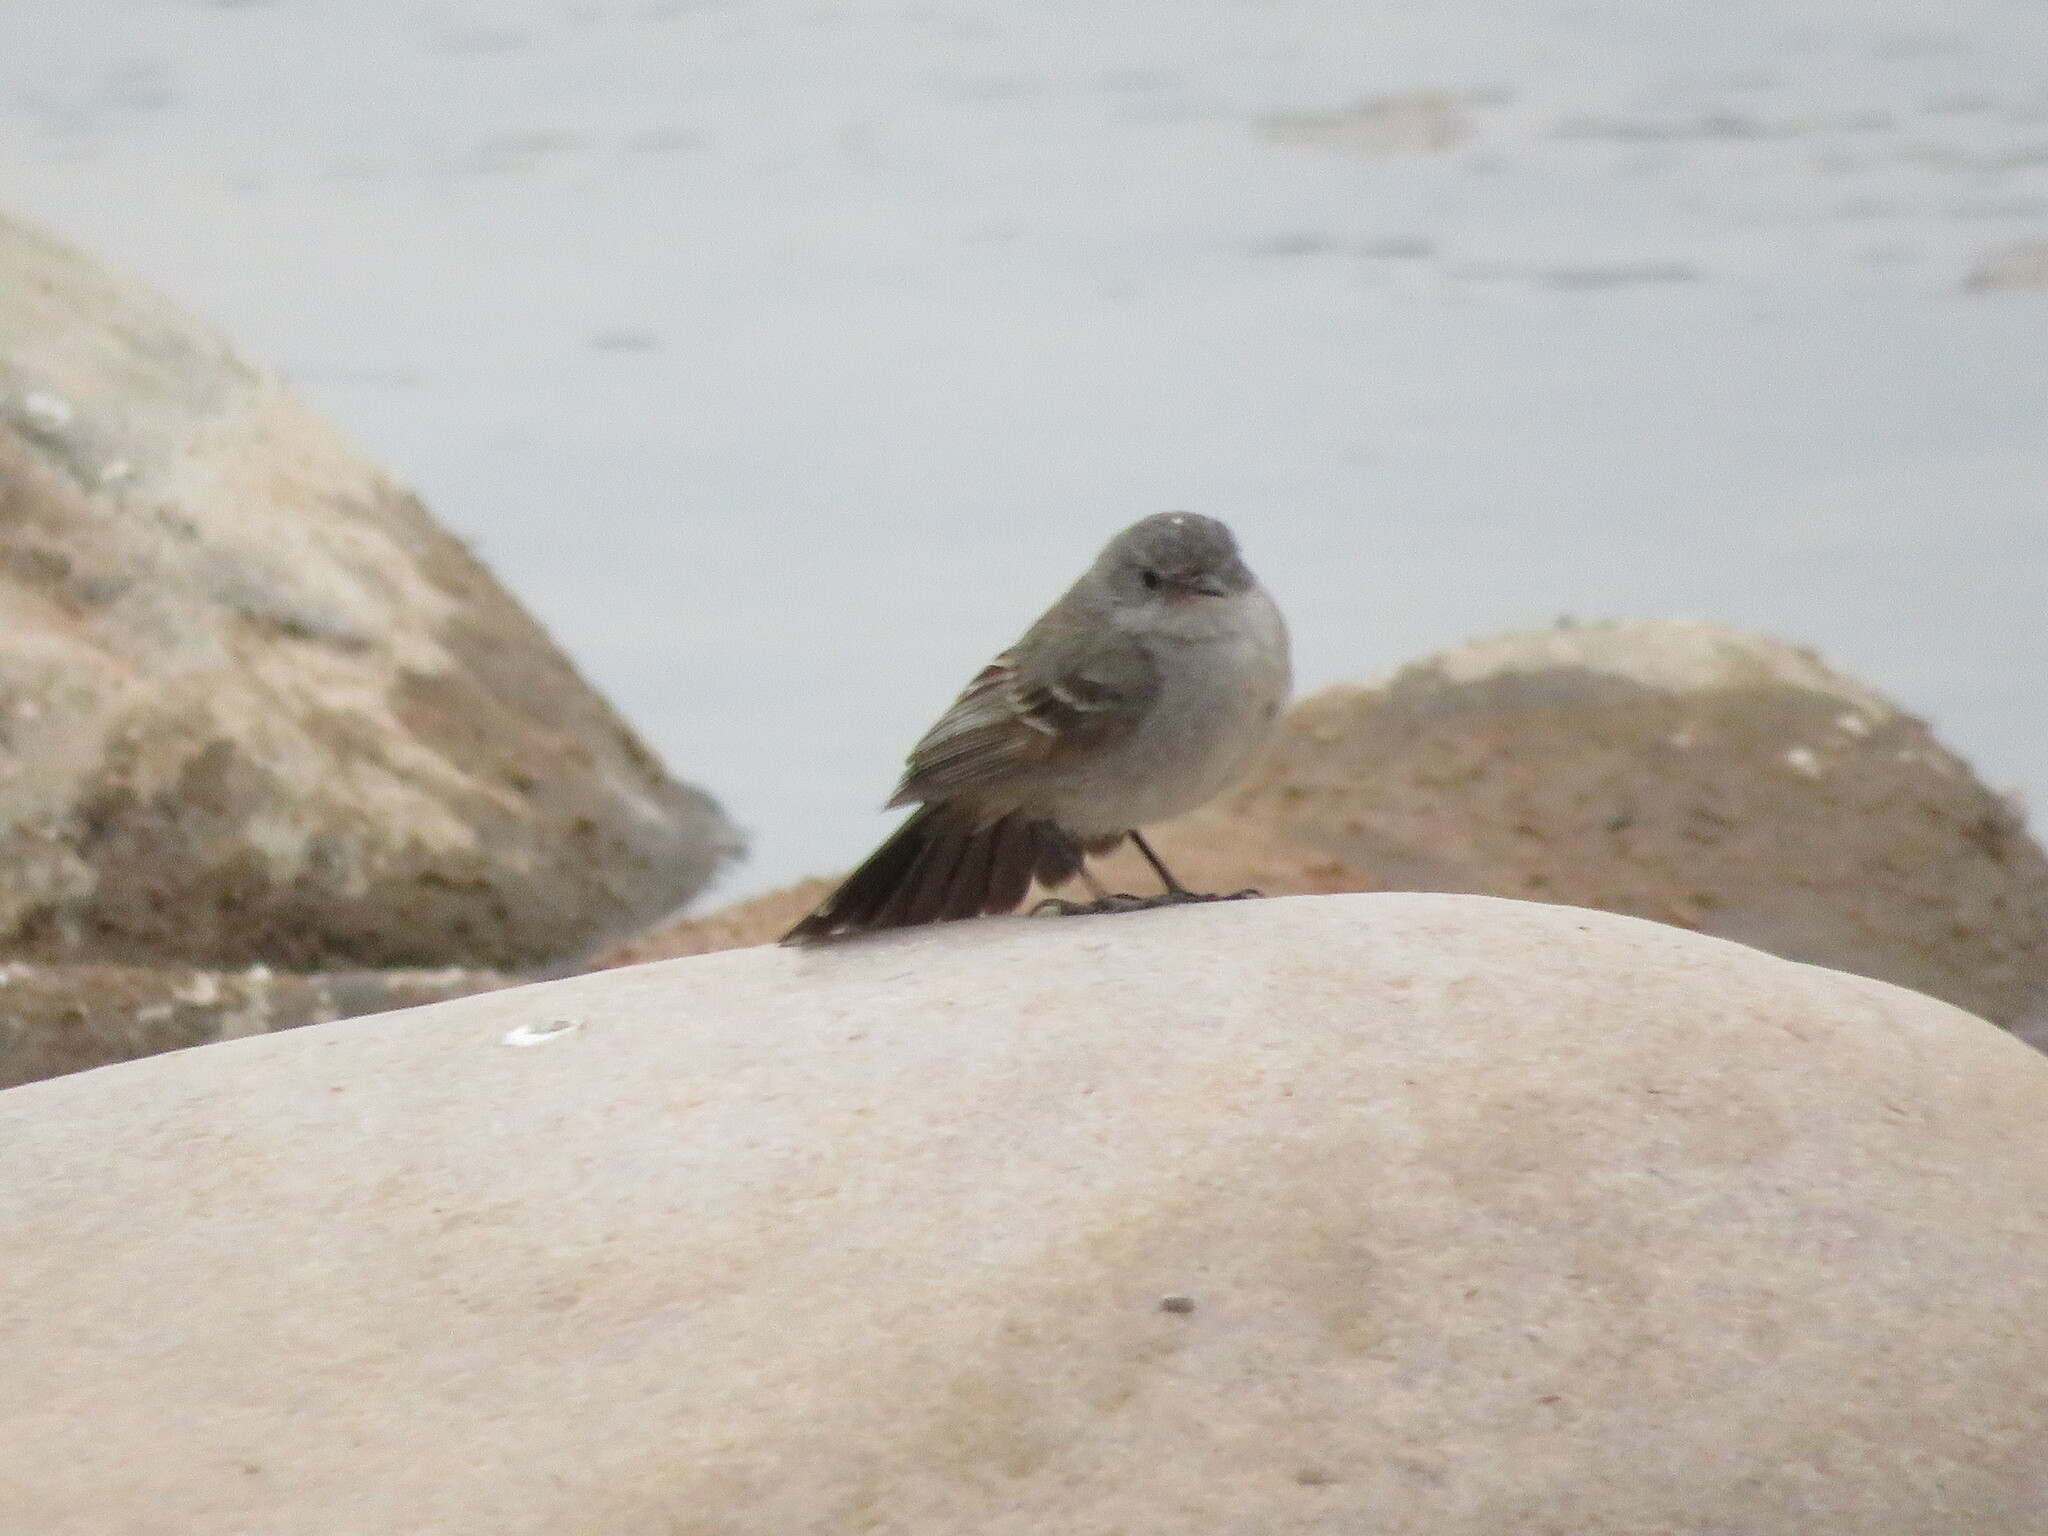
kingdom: Animalia
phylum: Chordata
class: Aves
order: Passeriformes
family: Tyrannidae
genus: Serpophaga
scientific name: Serpophaga nigricans
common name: Sooty tyrannulet
